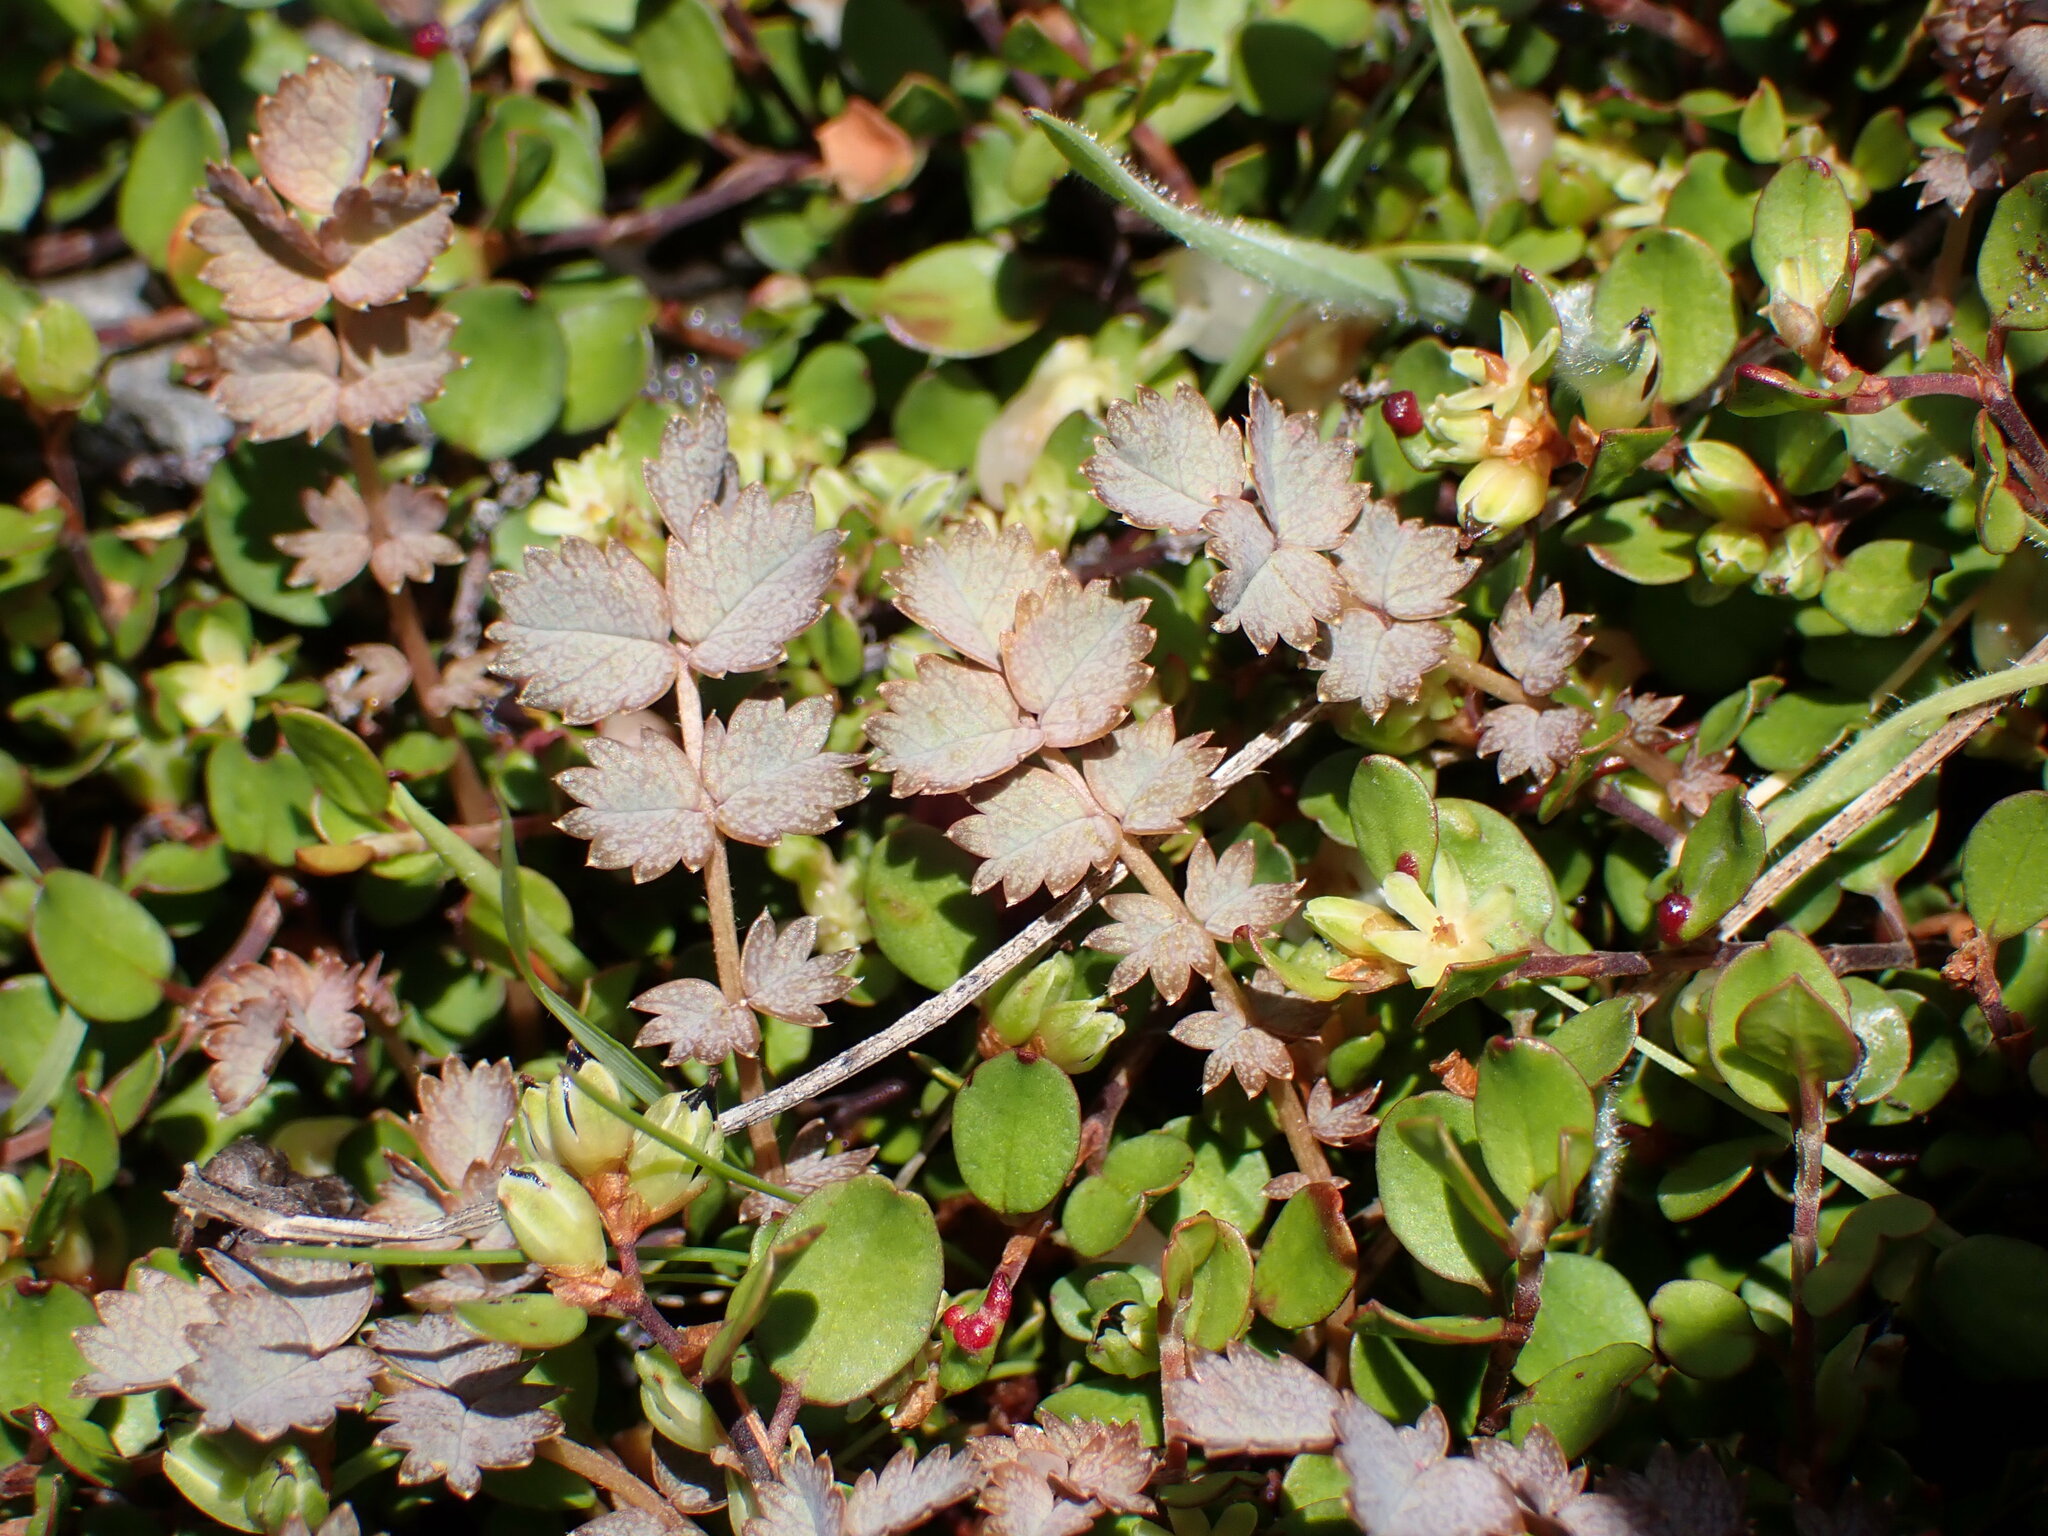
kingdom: Plantae
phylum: Tracheophyta
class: Magnoliopsida
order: Rosales
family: Rosaceae
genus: Acaena
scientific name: Acaena inermis
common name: Spineless acaena
